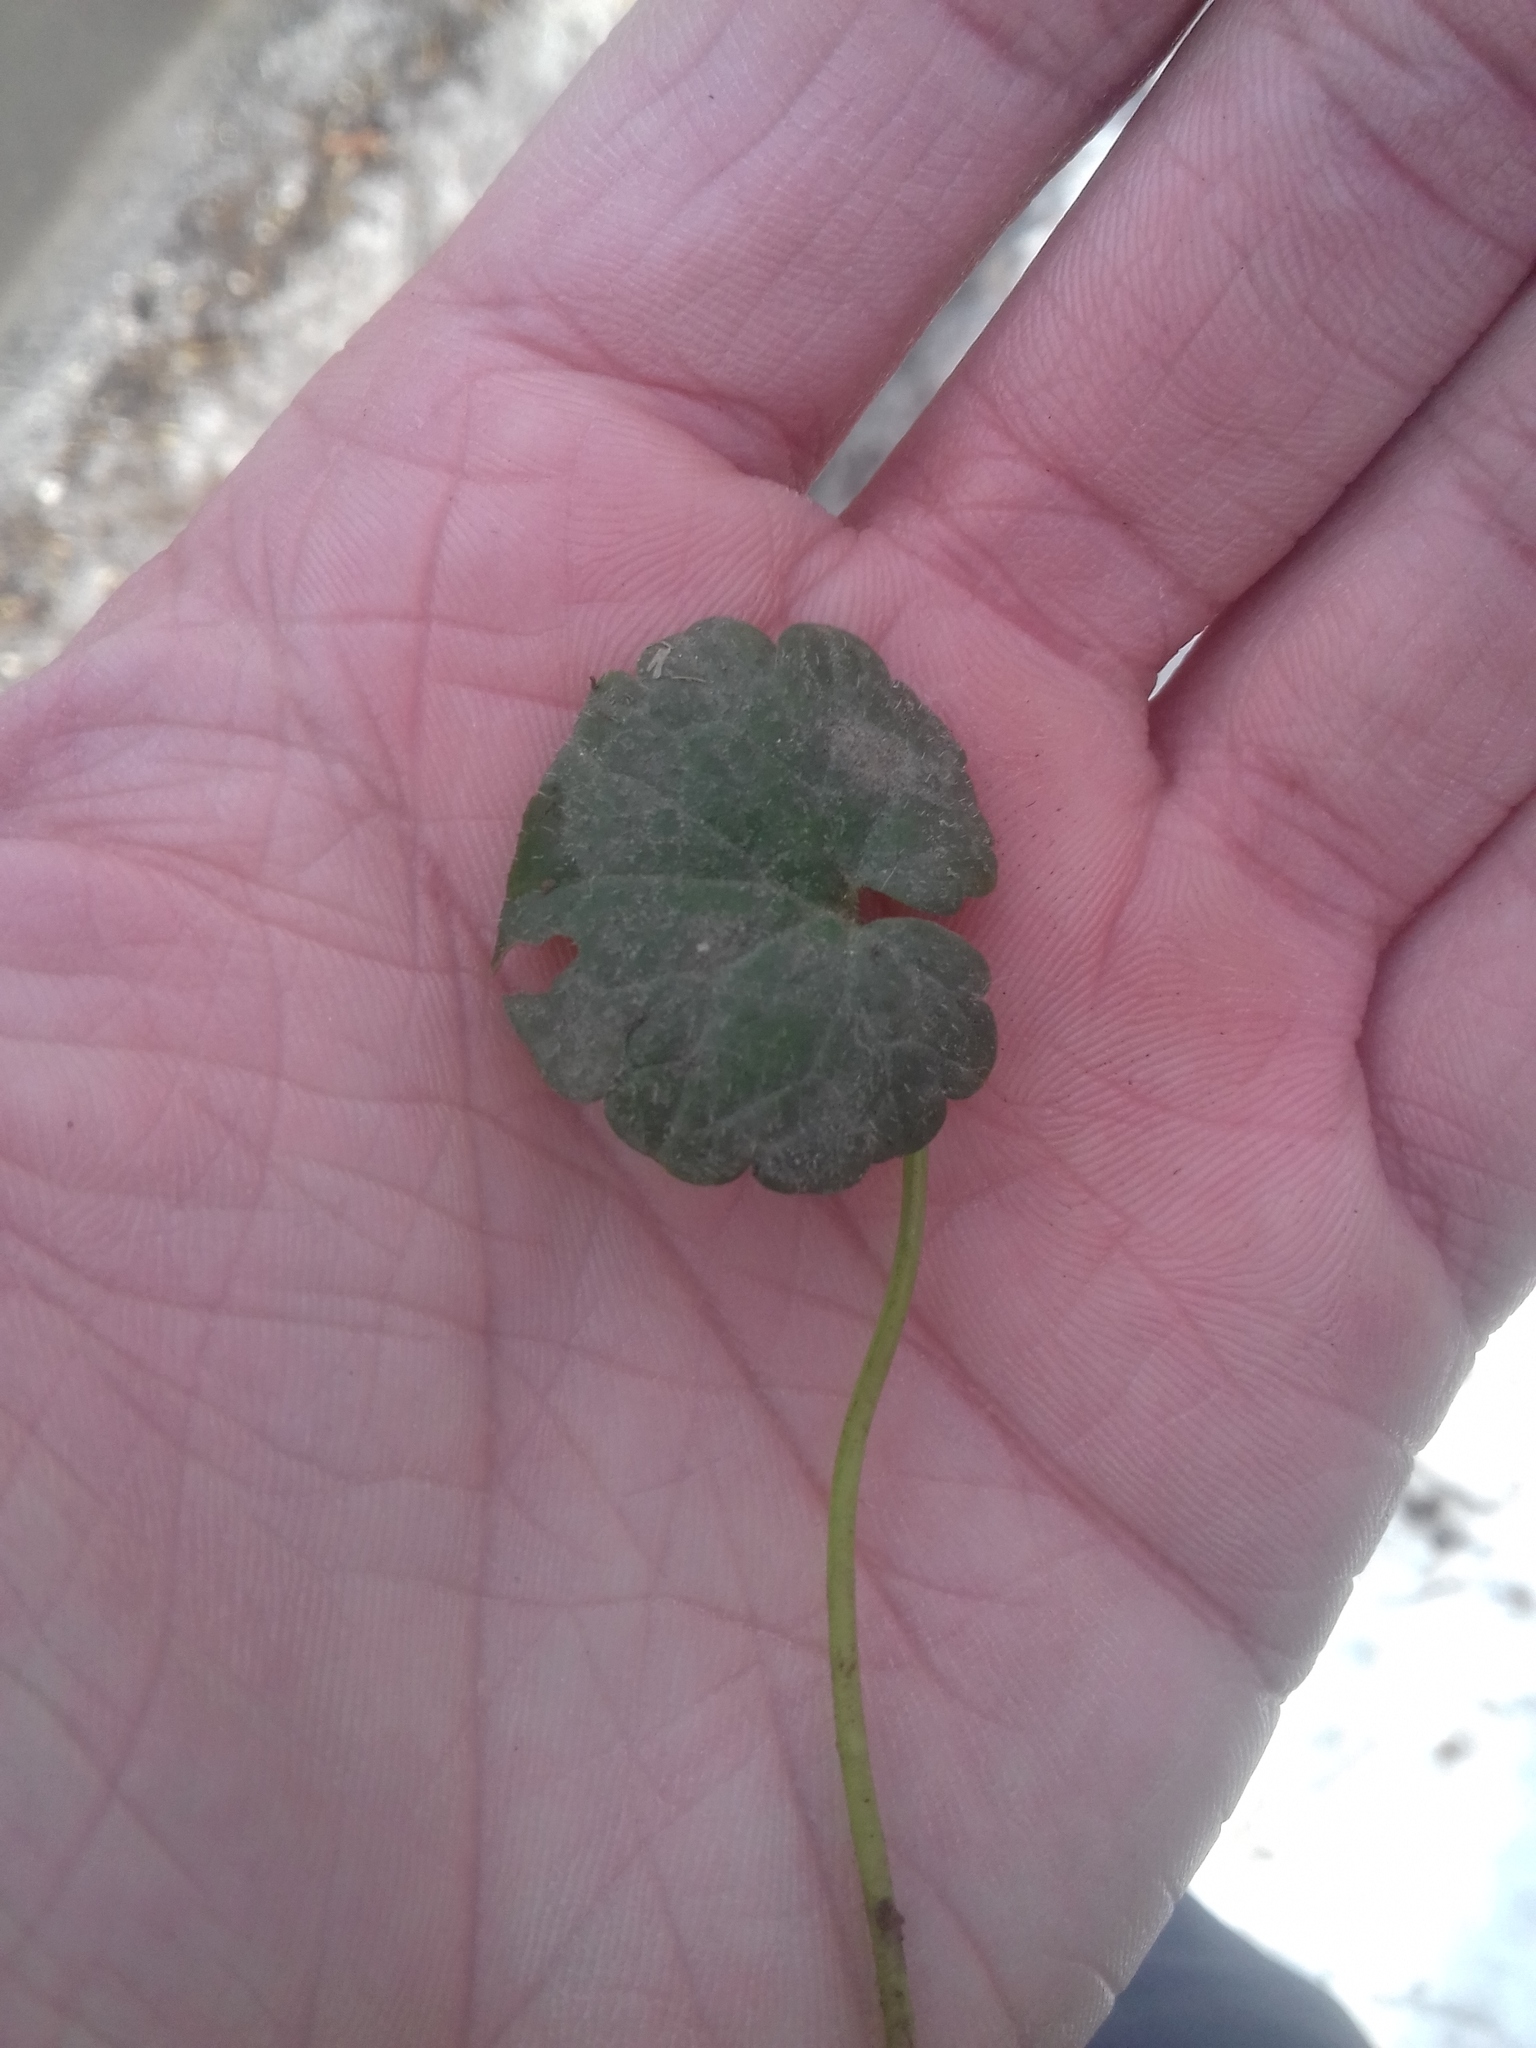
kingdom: Plantae
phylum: Tracheophyta
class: Magnoliopsida
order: Lamiales
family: Lamiaceae
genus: Glechoma
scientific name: Glechoma hederacea
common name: Ground ivy
